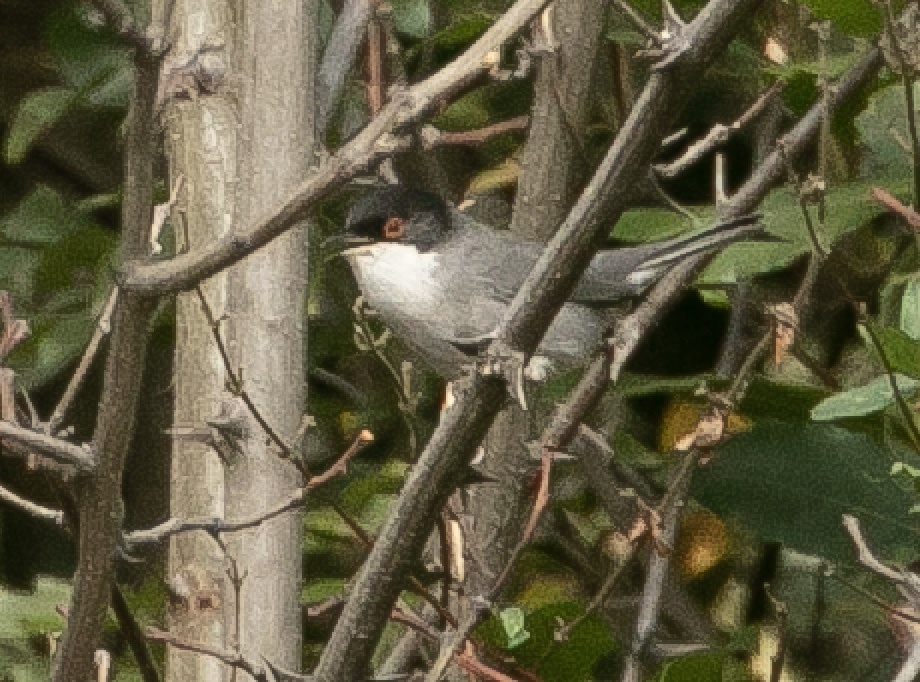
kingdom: Animalia
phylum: Chordata
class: Aves
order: Passeriformes
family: Sylviidae
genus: Curruca
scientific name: Curruca melanocephala
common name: Sardinian warbler
